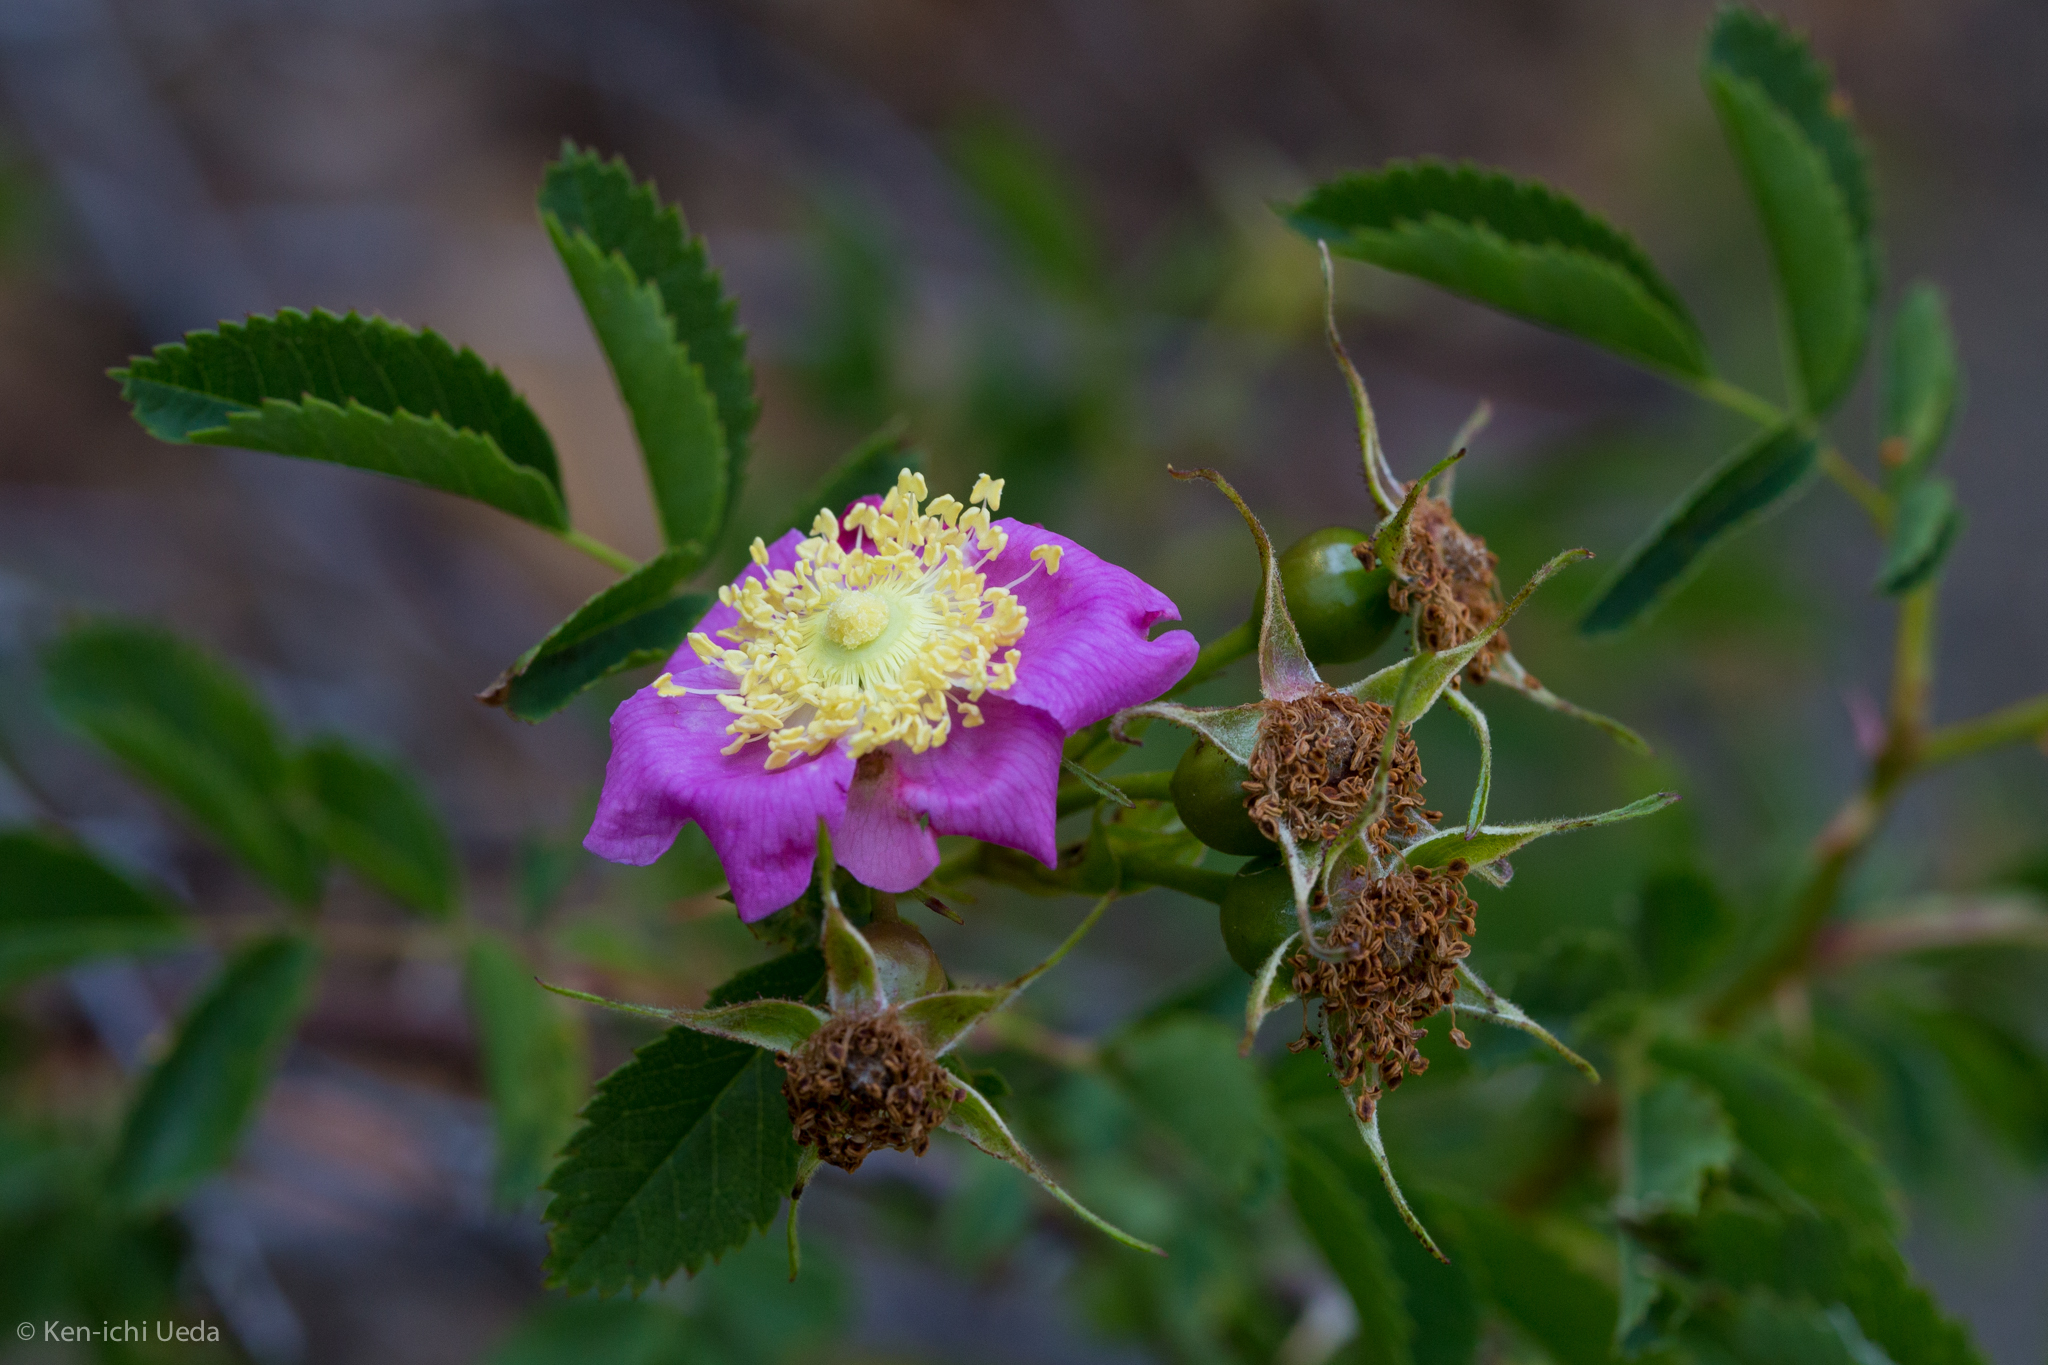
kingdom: Plantae
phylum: Tracheophyta
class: Magnoliopsida
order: Rosales
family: Rosaceae
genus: Rosa
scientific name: Rosa pisocarpa
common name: Cluster rose
